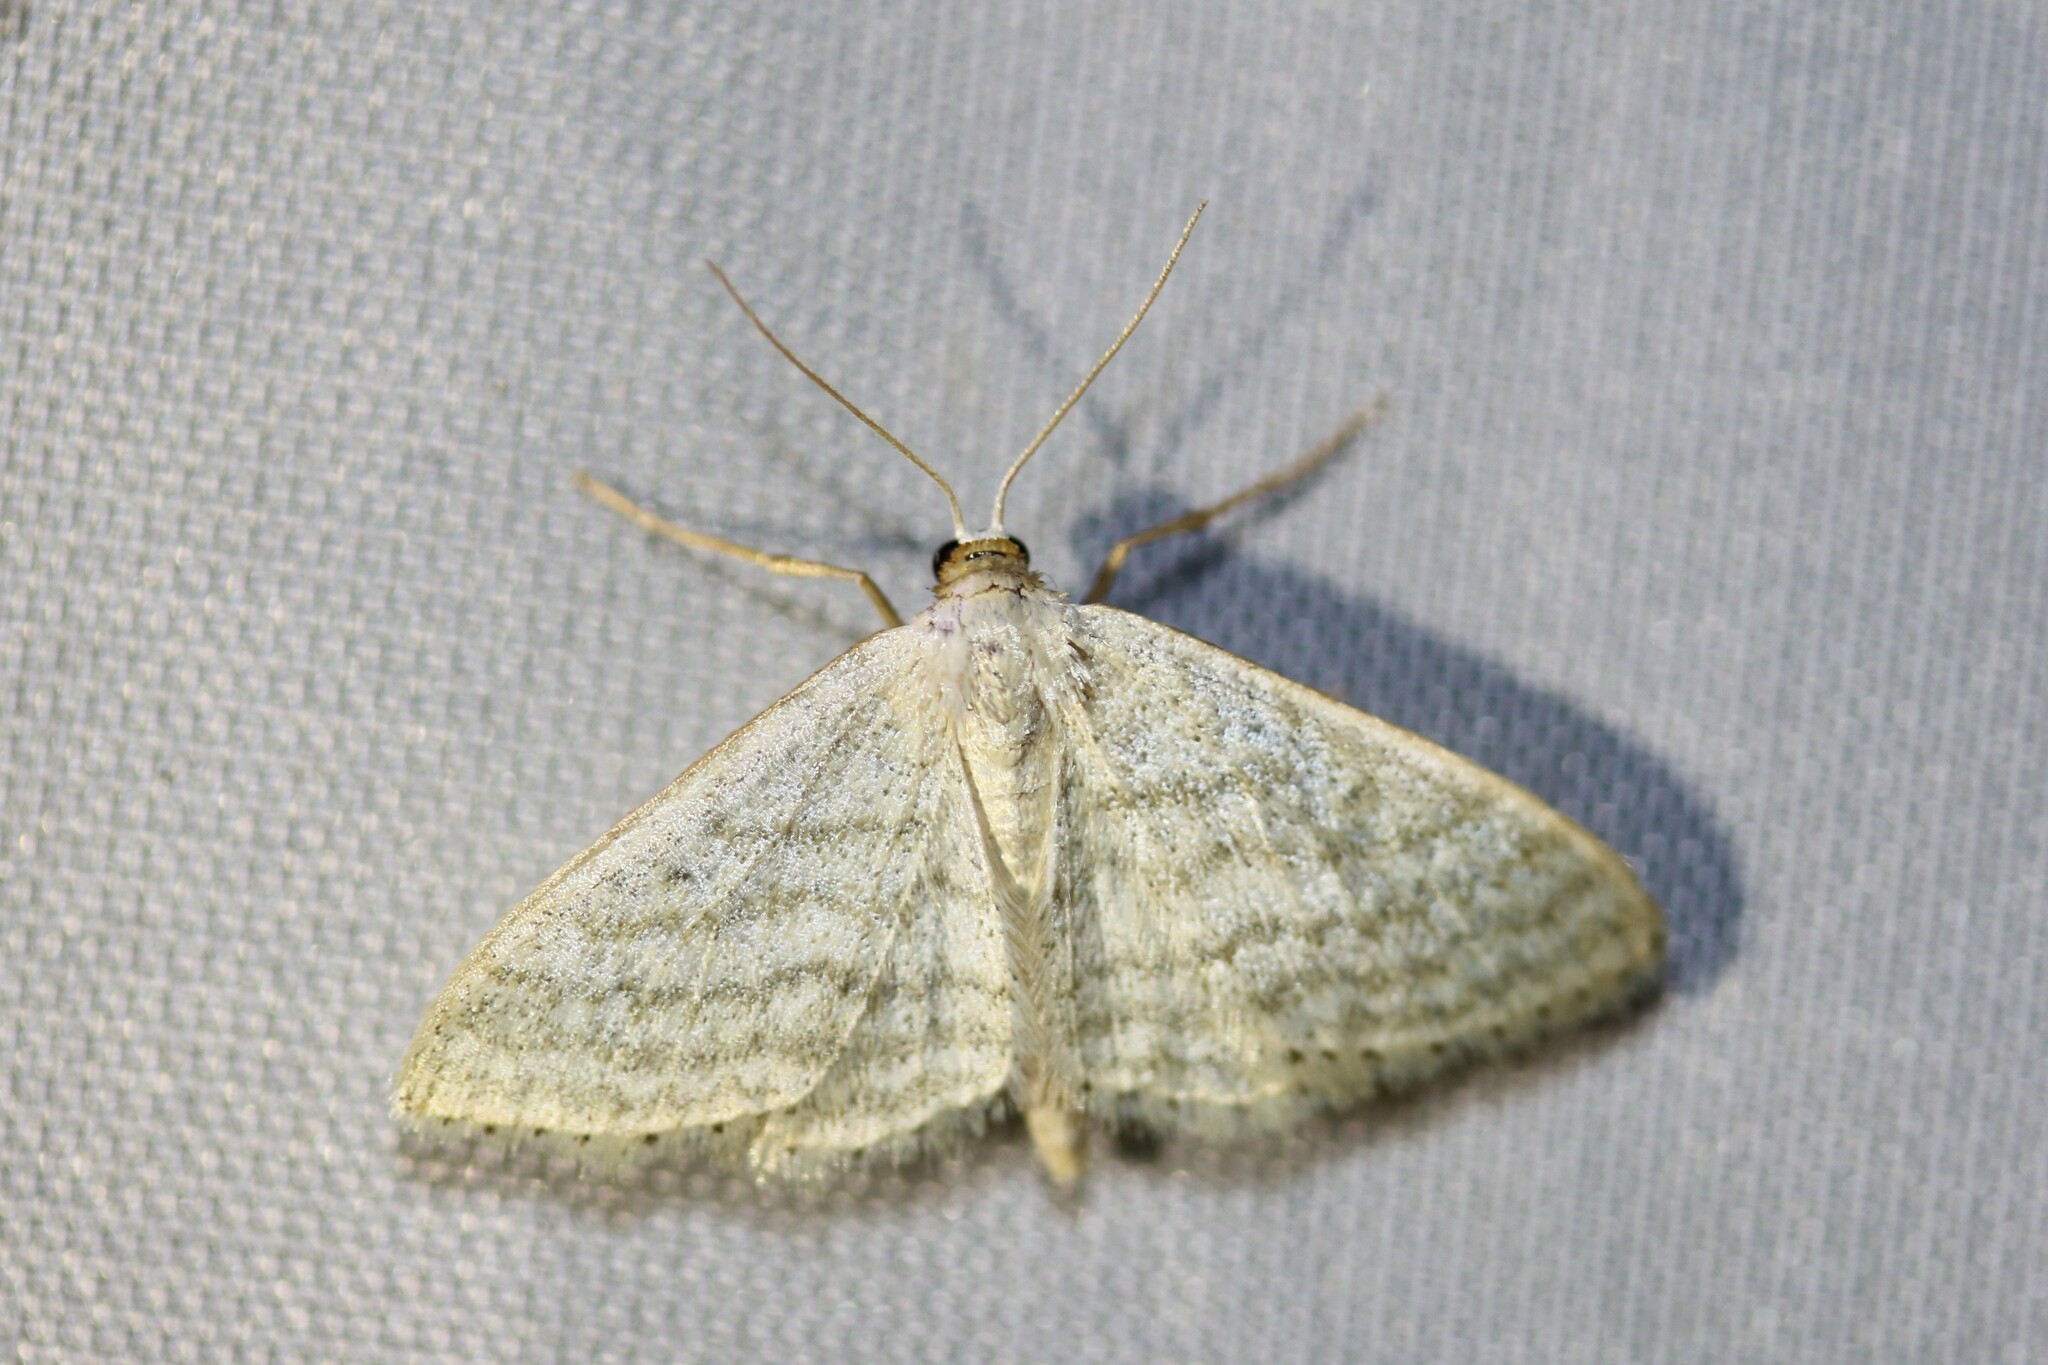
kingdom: Animalia
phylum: Arthropoda
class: Insecta
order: Lepidoptera
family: Geometridae
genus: Idaea
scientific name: Idaea subsericeata
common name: Satin wave
